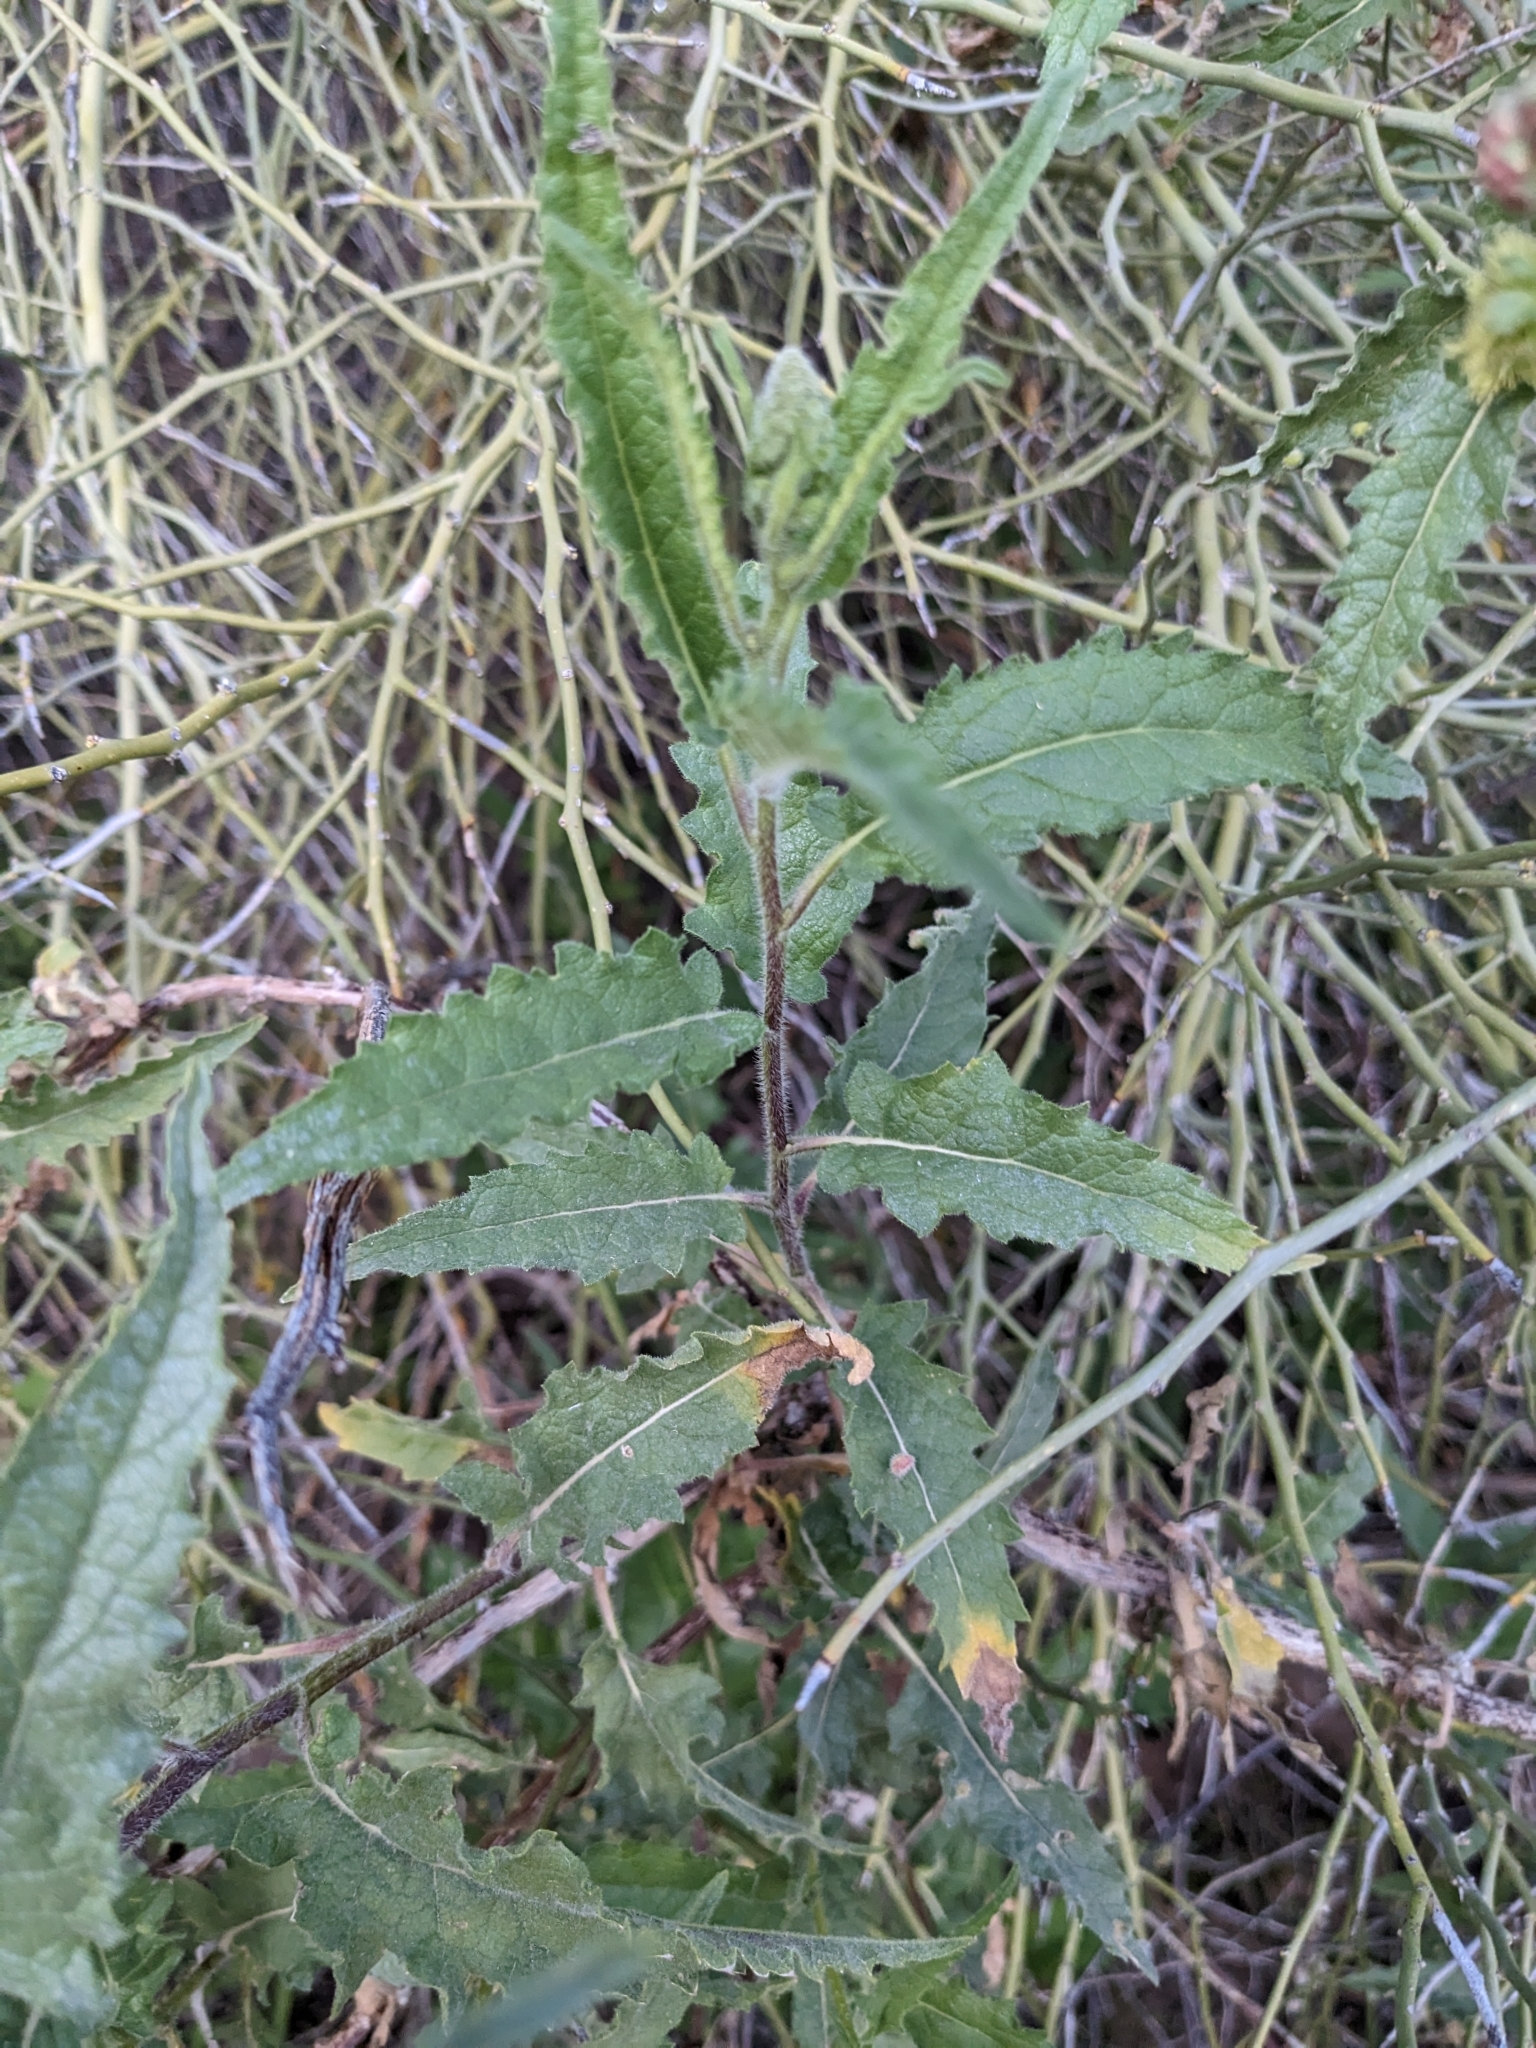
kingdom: Plantae
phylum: Tracheophyta
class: Magnoliopsida
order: Asterales
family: Asteraceae
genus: Ambrosia
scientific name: Ambrosia ambrosioides
